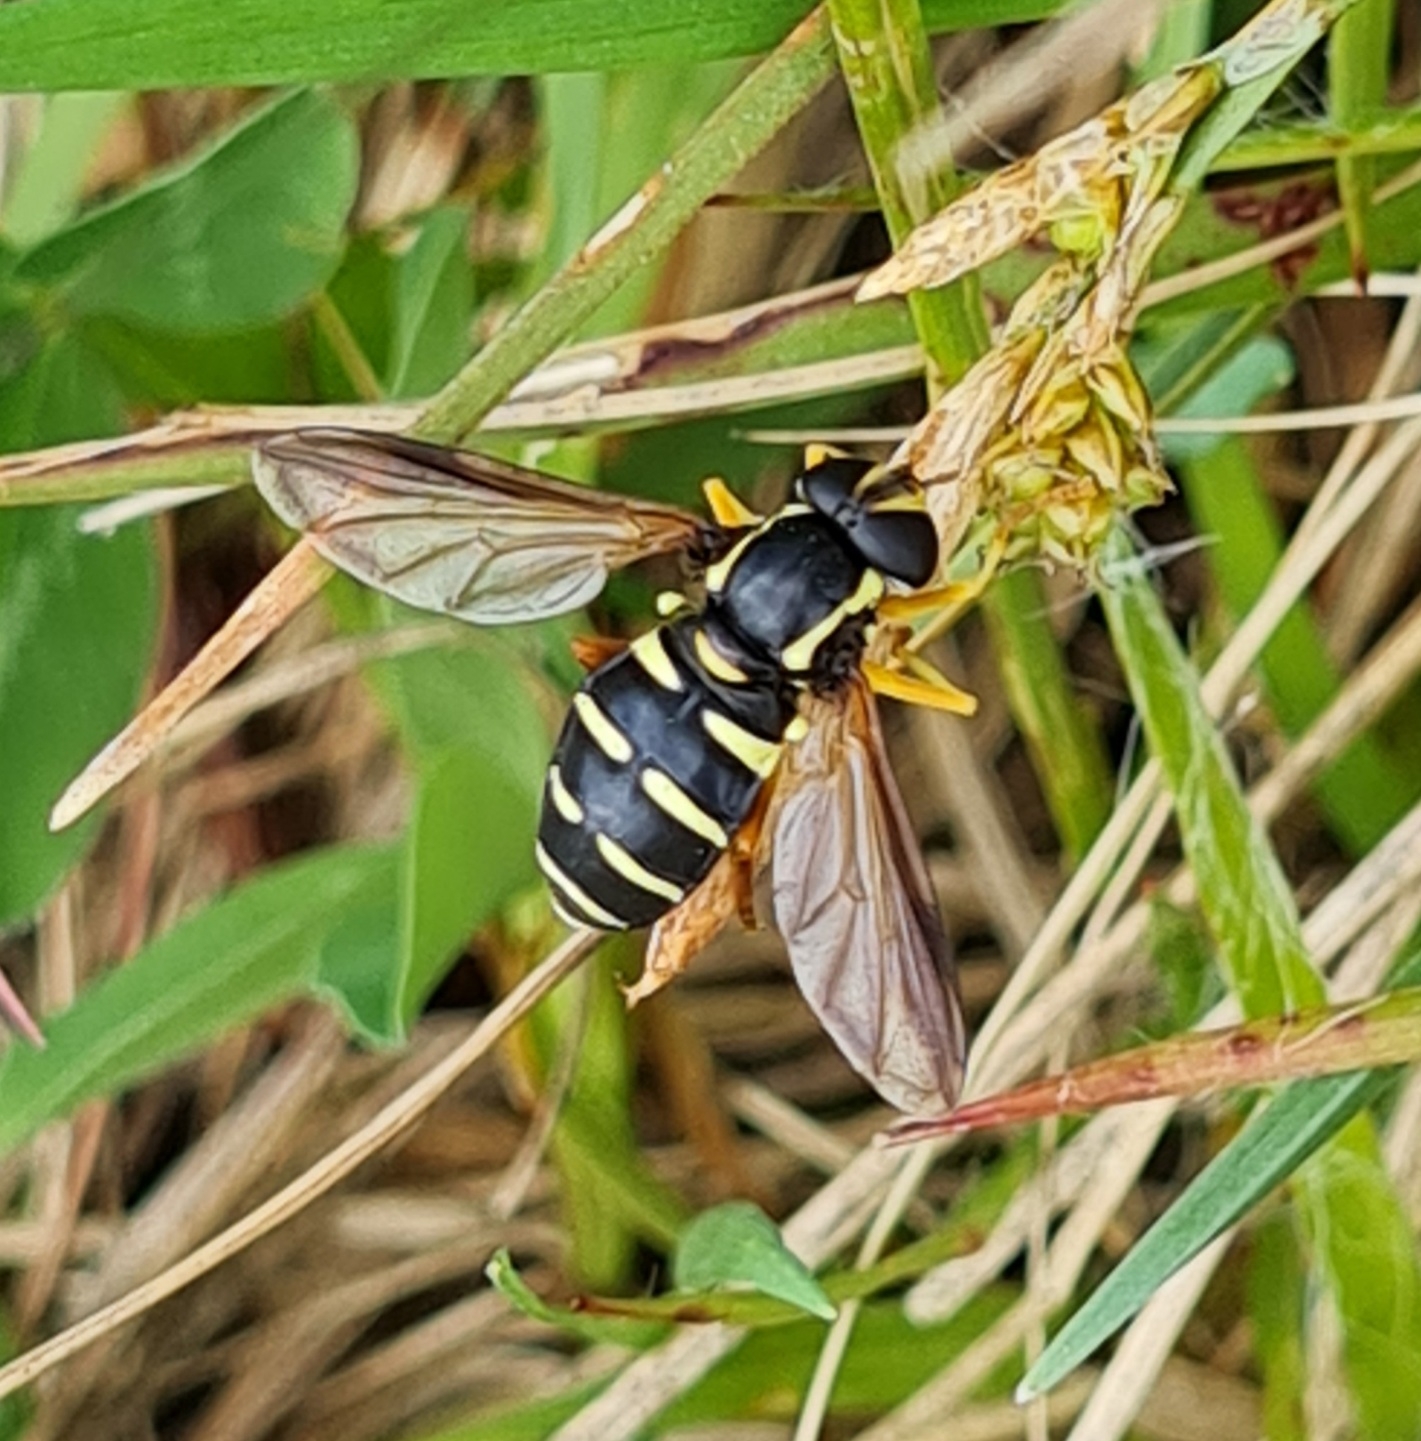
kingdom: Animalia
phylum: Arthropoda
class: Insecta
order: Diptera
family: Syrphidae
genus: Philhelius
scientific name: Philhelius citrofasciata
